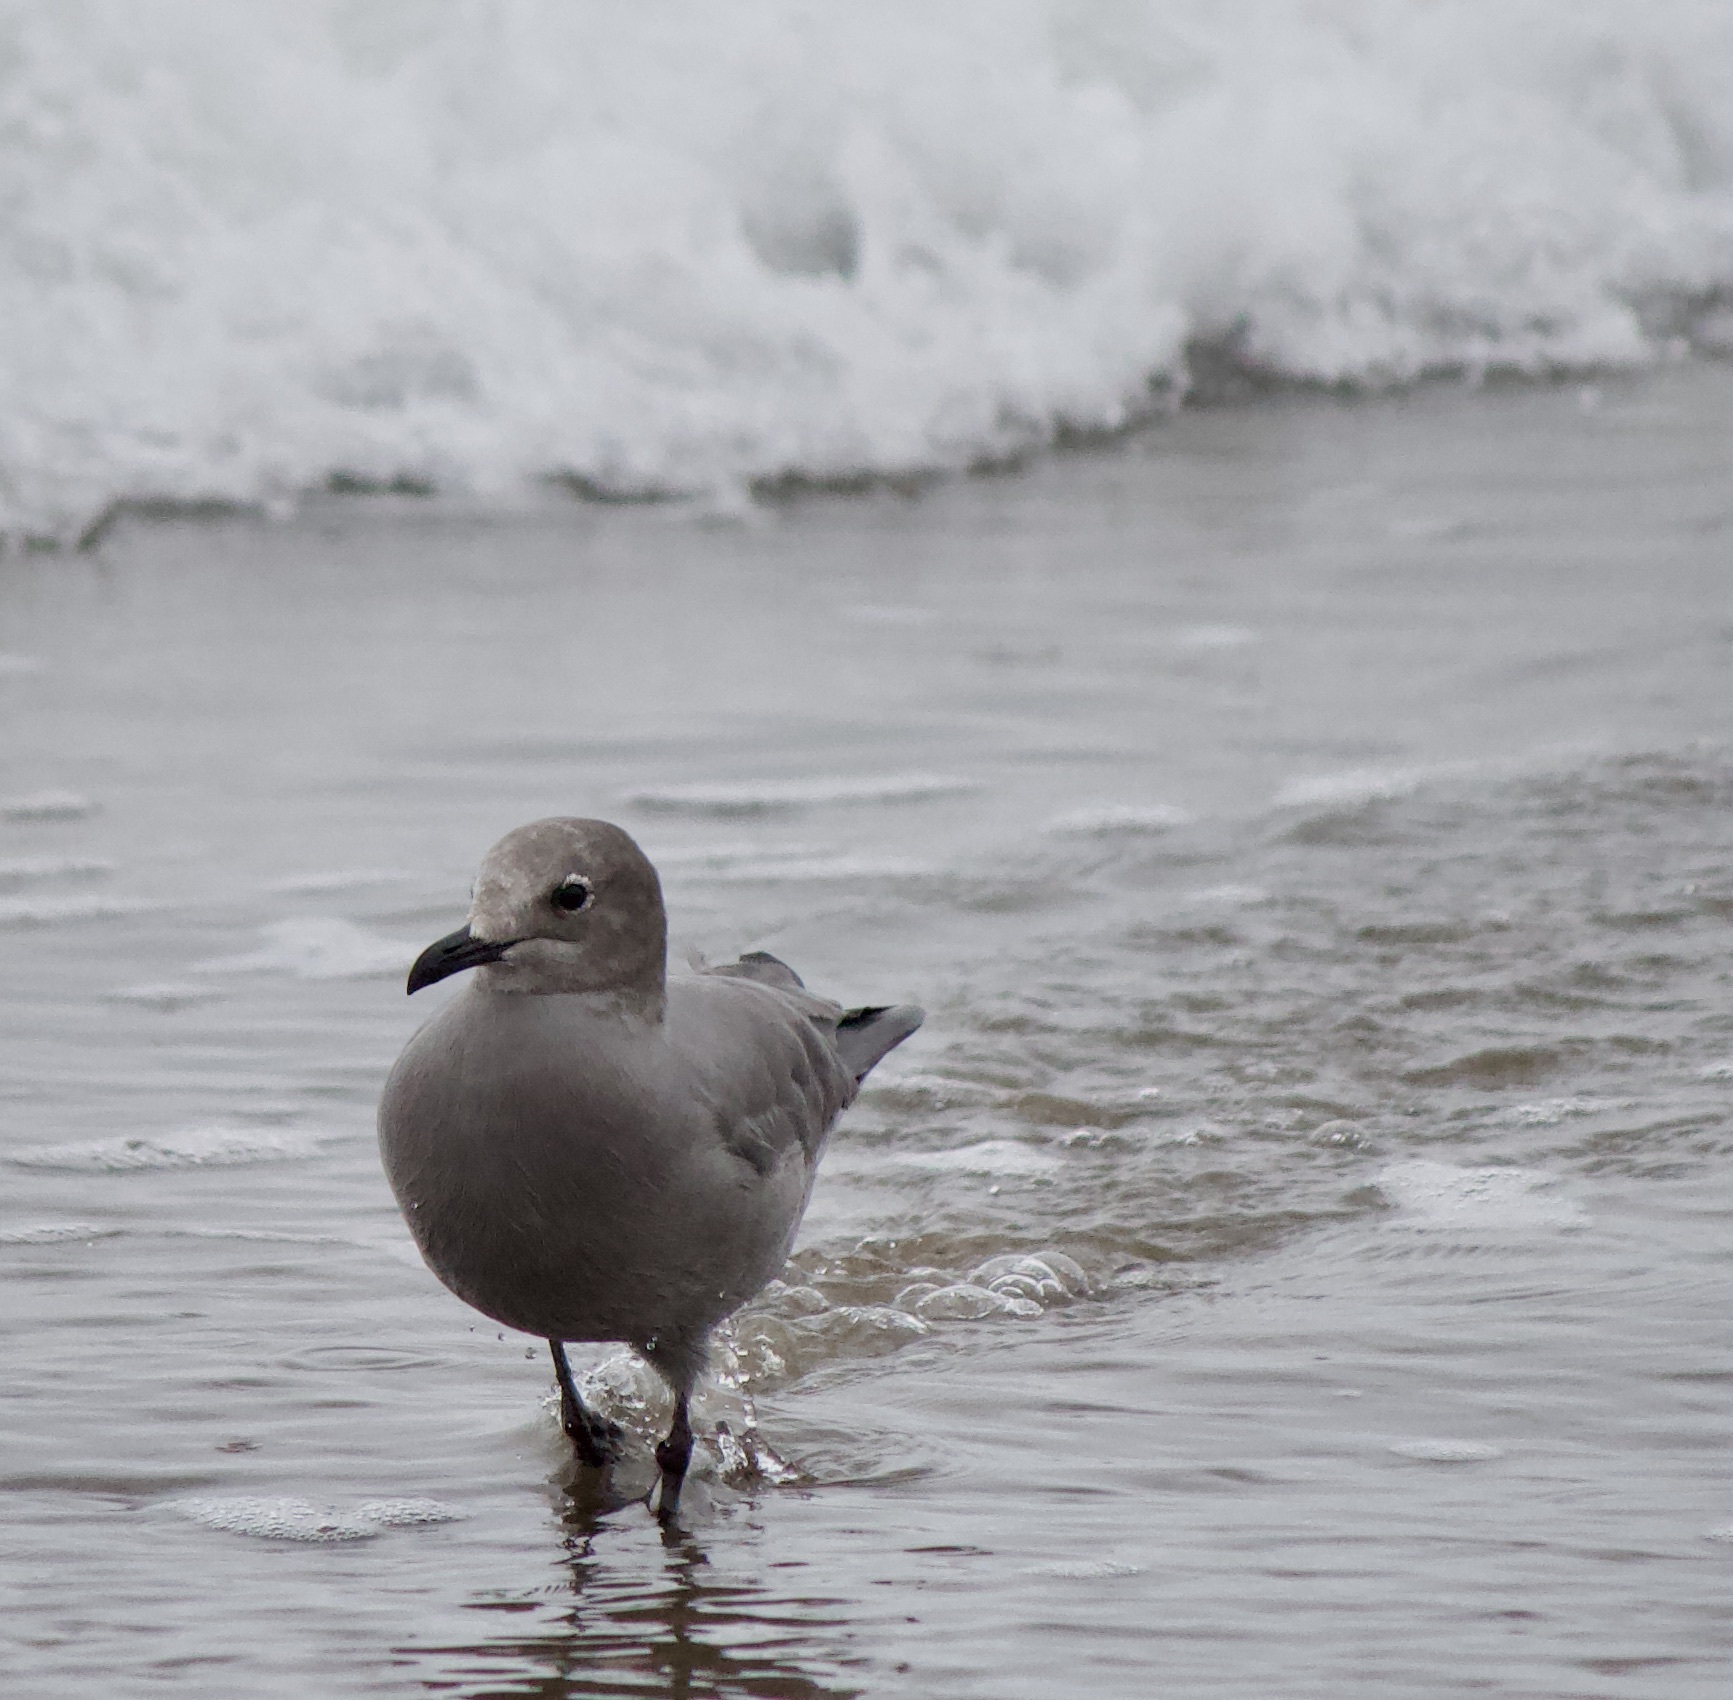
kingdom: Animalia
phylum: Chordata
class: Aves
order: Charadriiformes
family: Laridae
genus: Leucophaeus
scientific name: Leucophaeus modestus
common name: Gray gull
